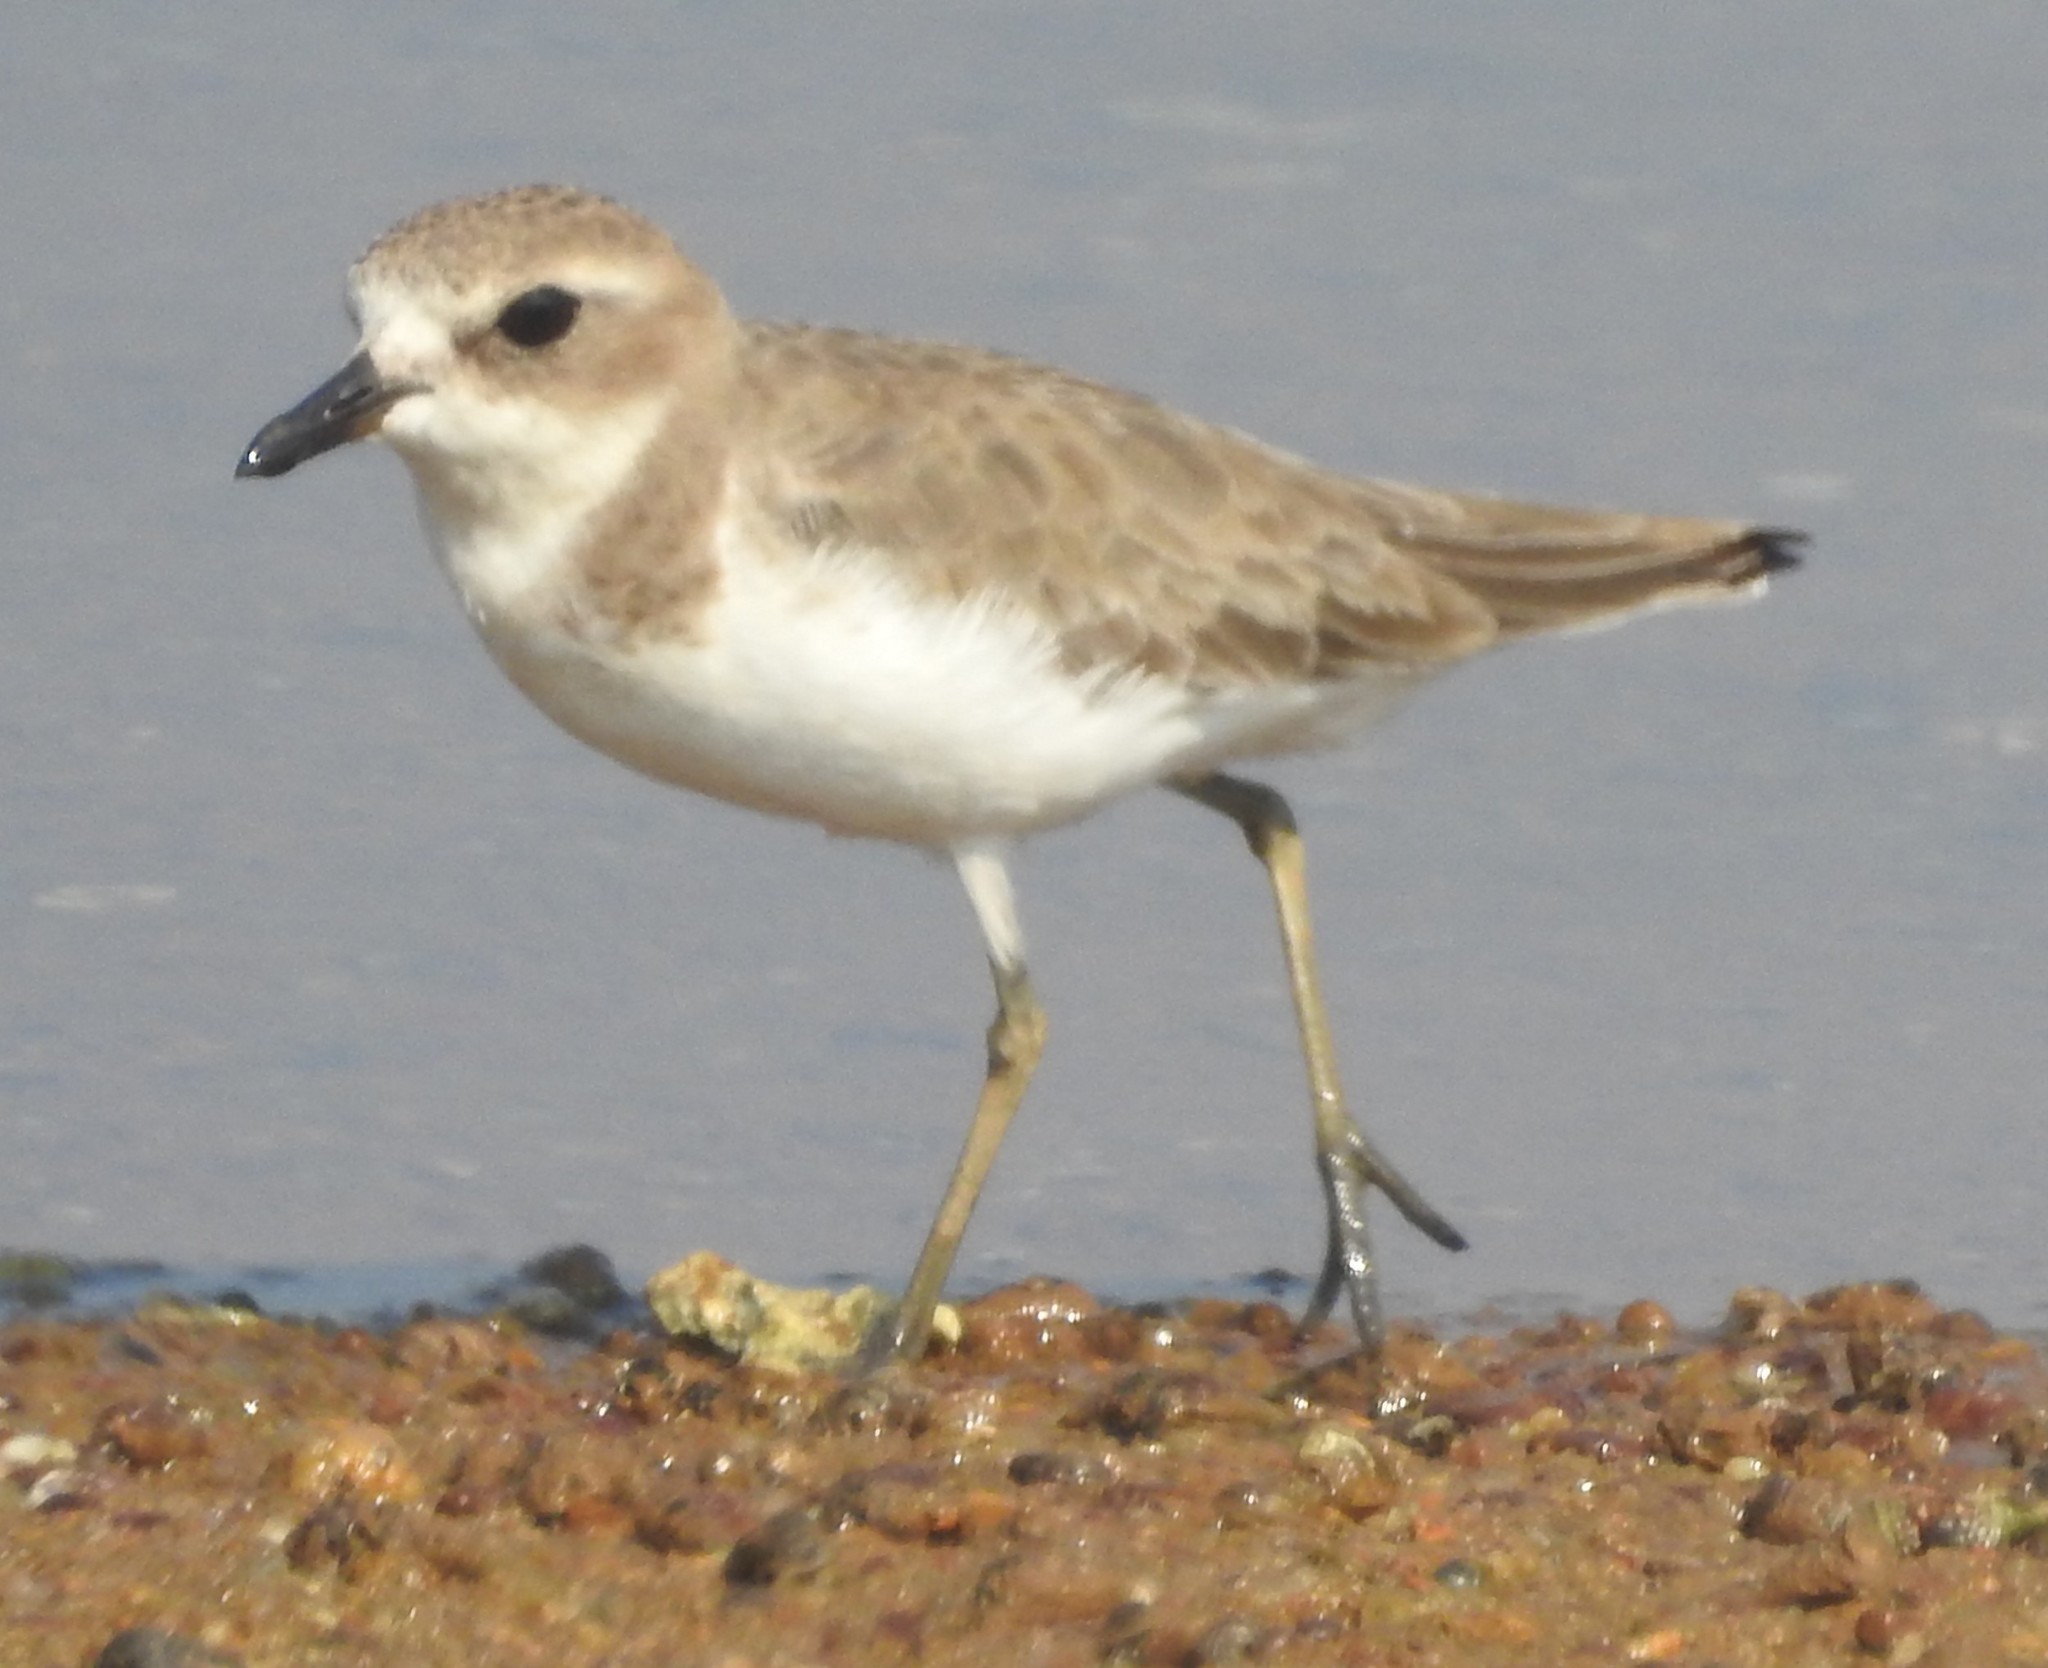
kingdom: Animalia
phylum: Chordata
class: Aves
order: Charadriiformes
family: Charadriidae
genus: Charadrius
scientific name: Charadrius alexandrinus
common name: Kentish plover
